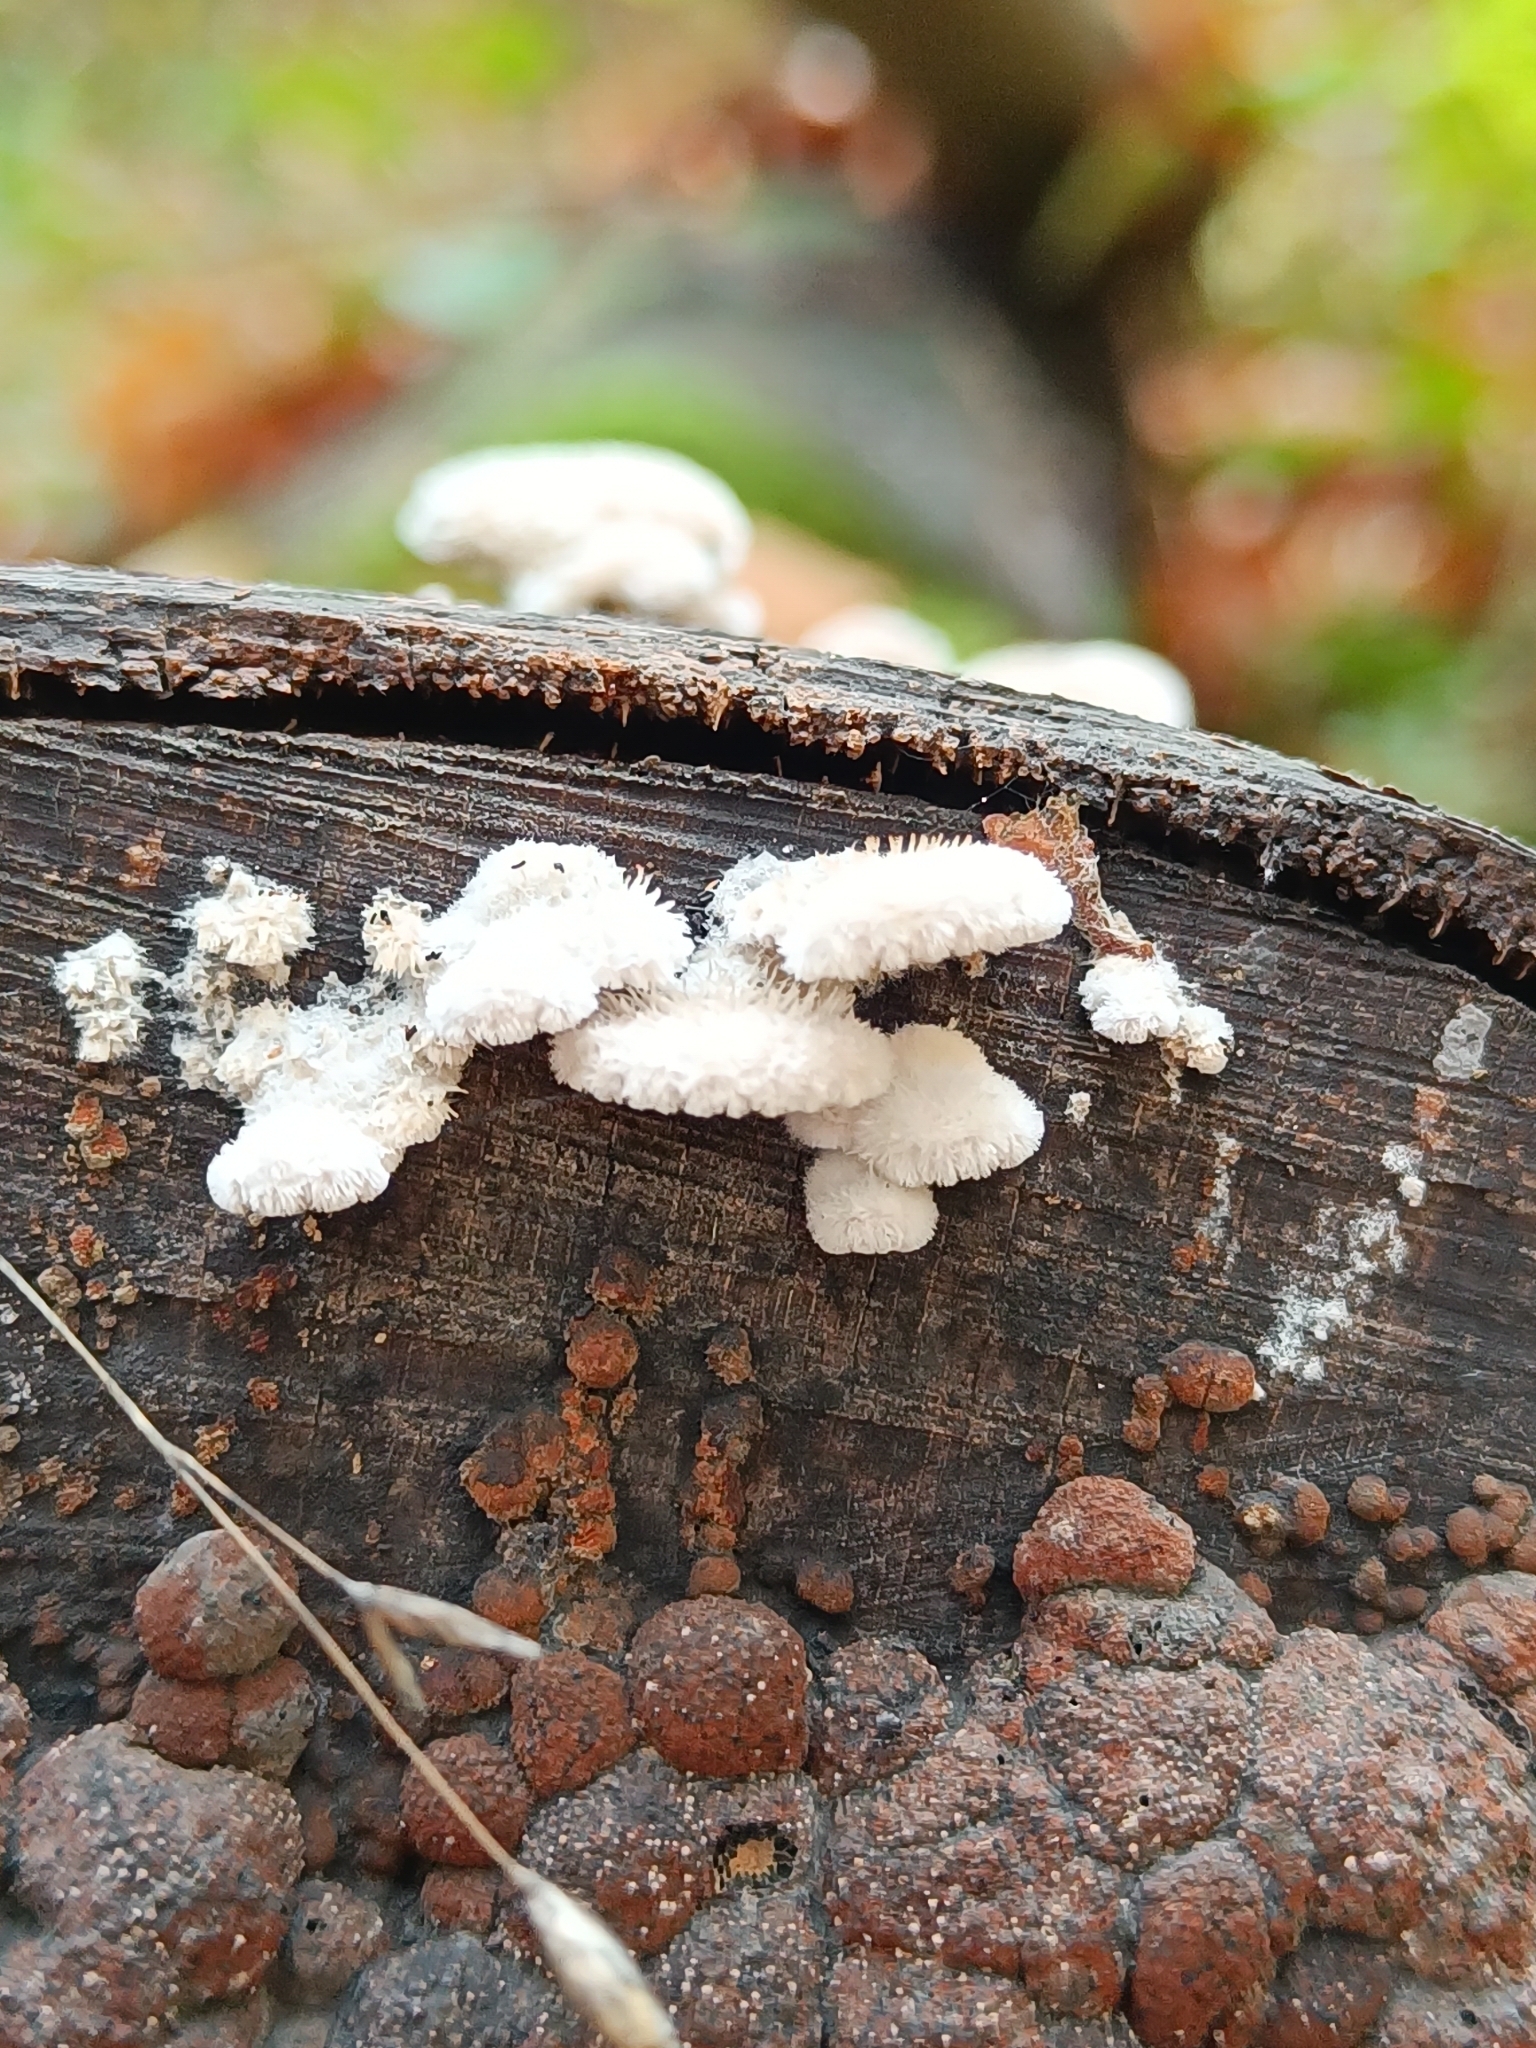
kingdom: Fungi
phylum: Basidiomycota
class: Agaricomycetes
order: Agaricales
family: Schizophyllaceae
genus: Schizophyllum
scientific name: Schizophyllum commune
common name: Common porecrust
